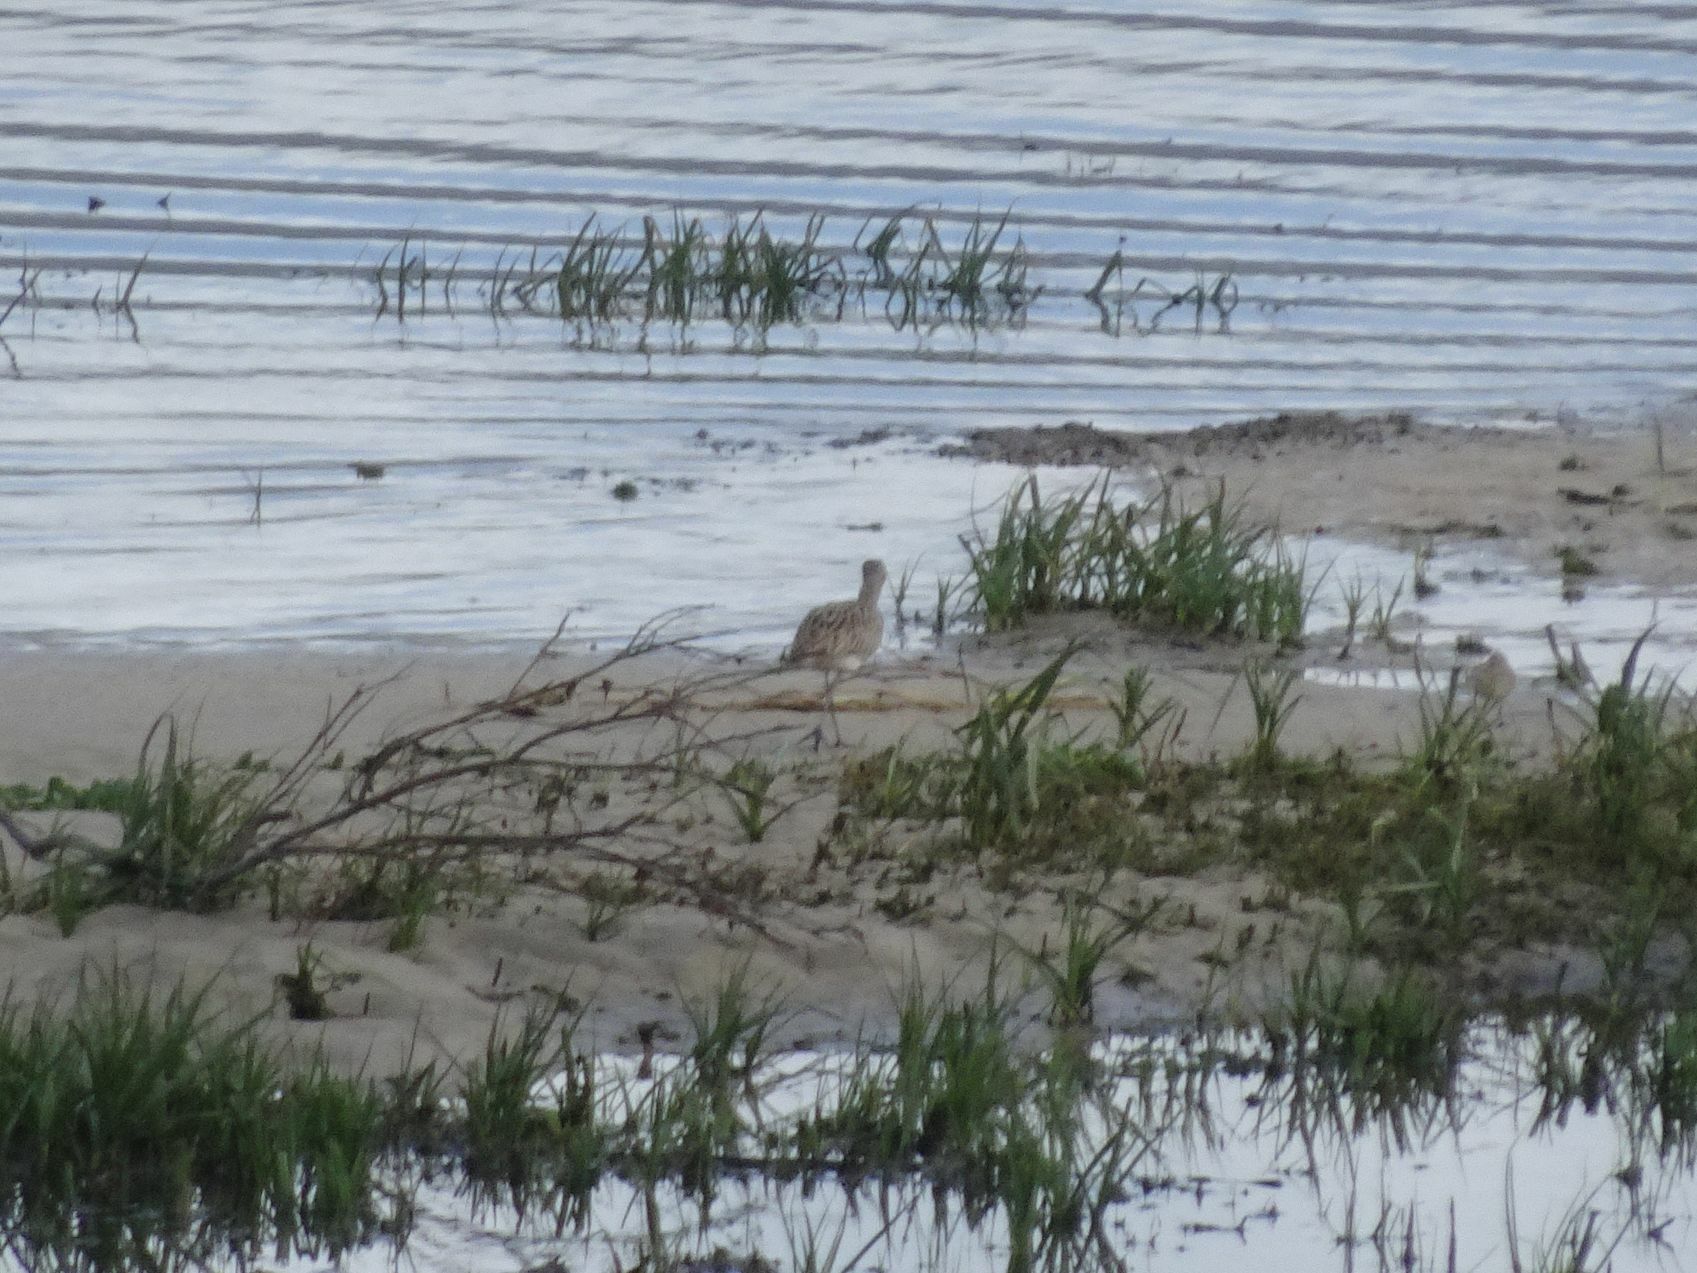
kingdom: Animalia
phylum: Chordata
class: Aves
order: Charadriiformes
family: Scolopacidae
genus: Numenius
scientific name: Numenius phaeopus
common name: Whimbrel
